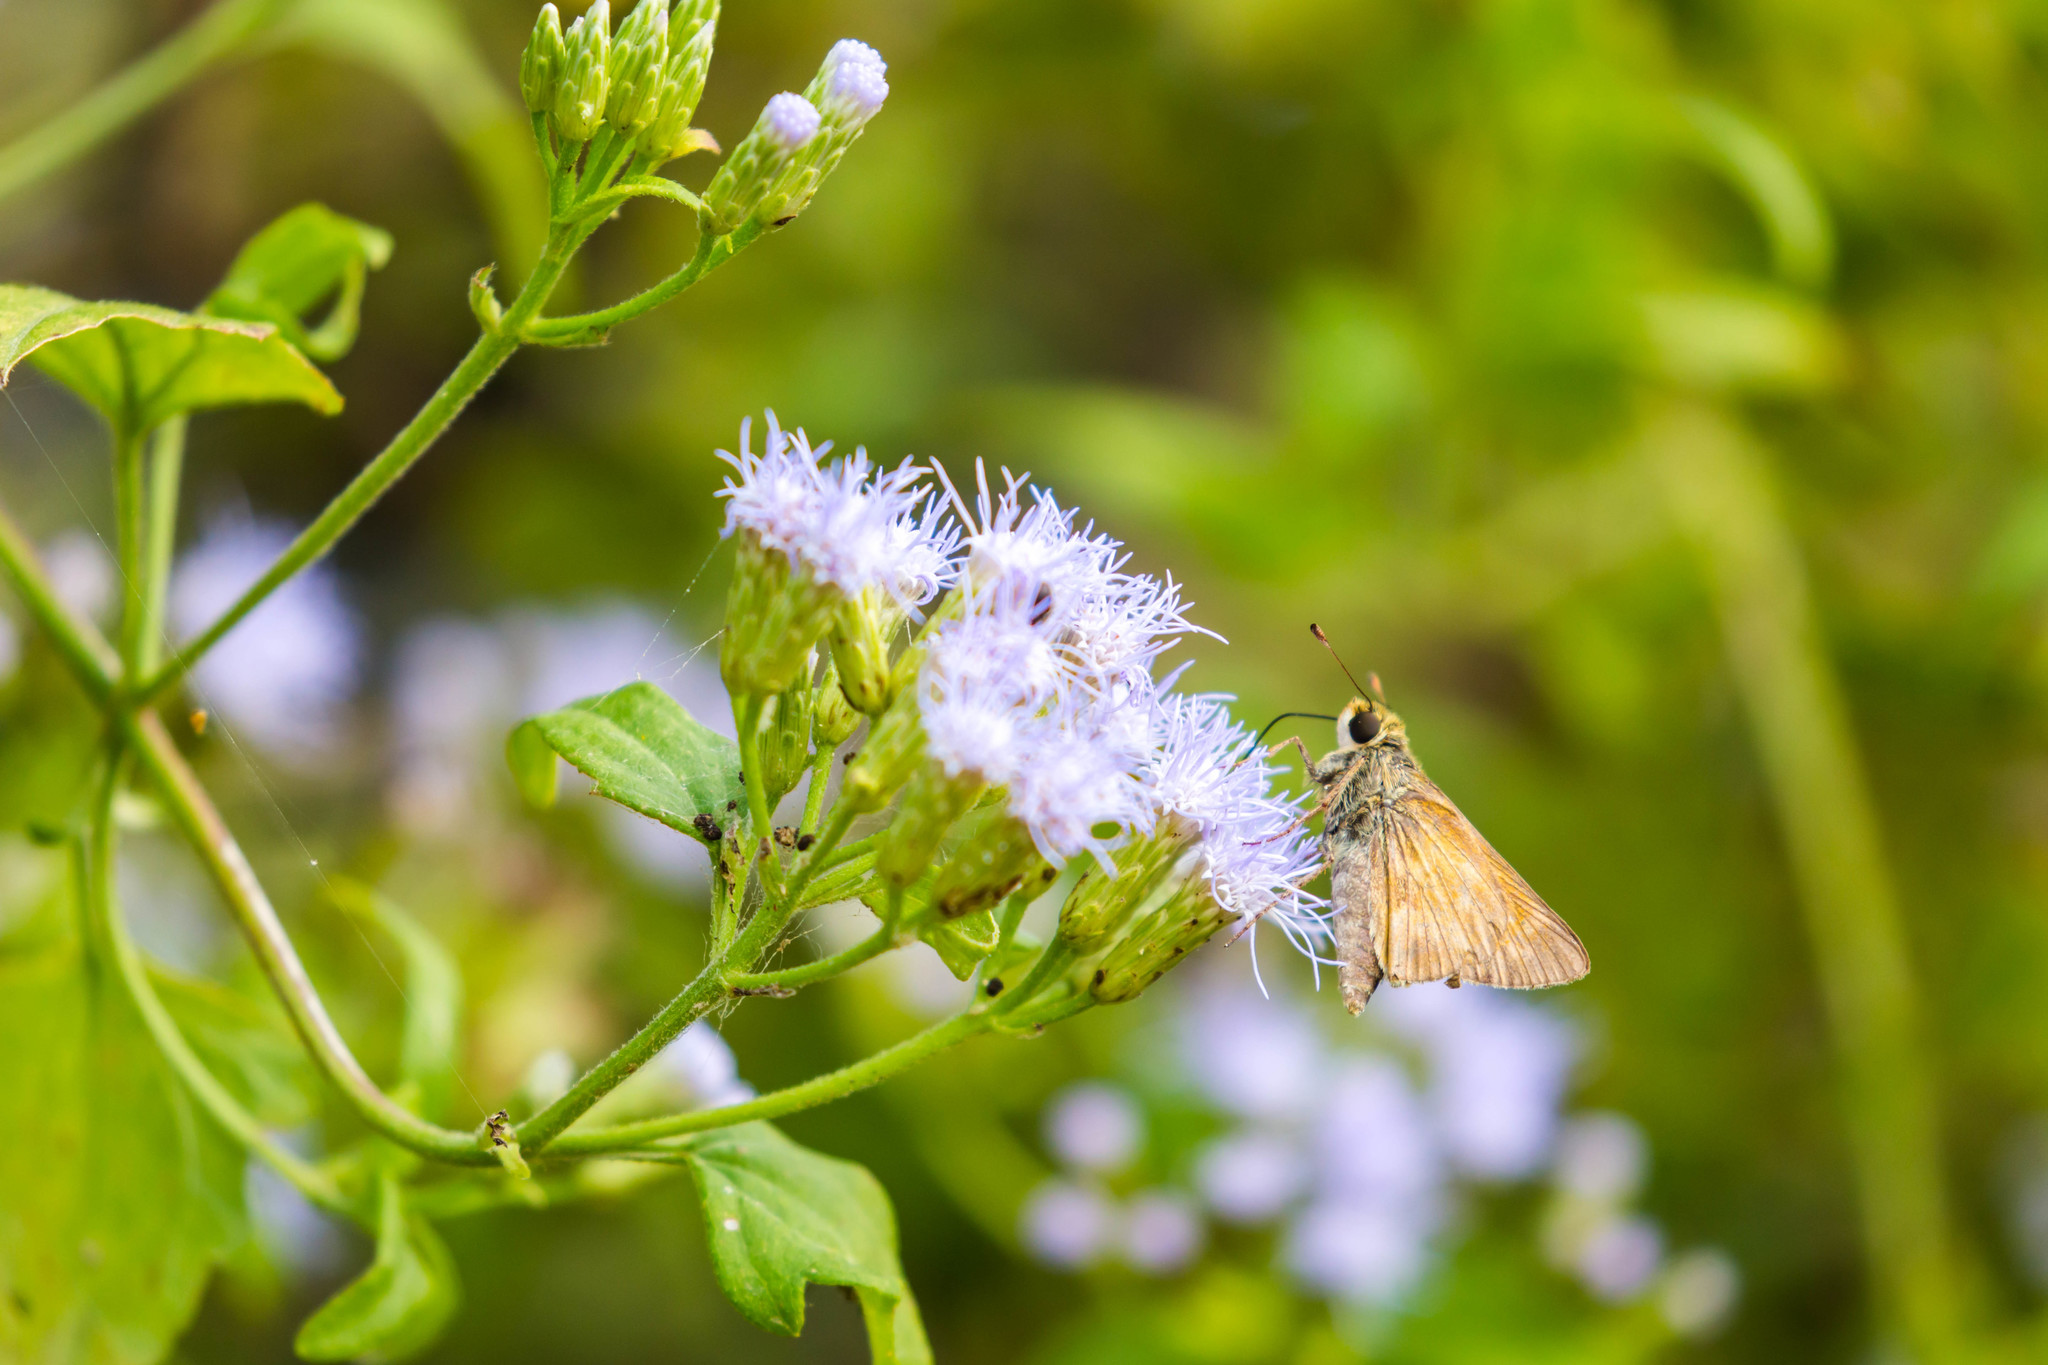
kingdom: Animalia
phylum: Arthropoda
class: Insecta
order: Lepidoptera
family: Hesperiidae
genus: Atalopedes
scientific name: Atalopedes
